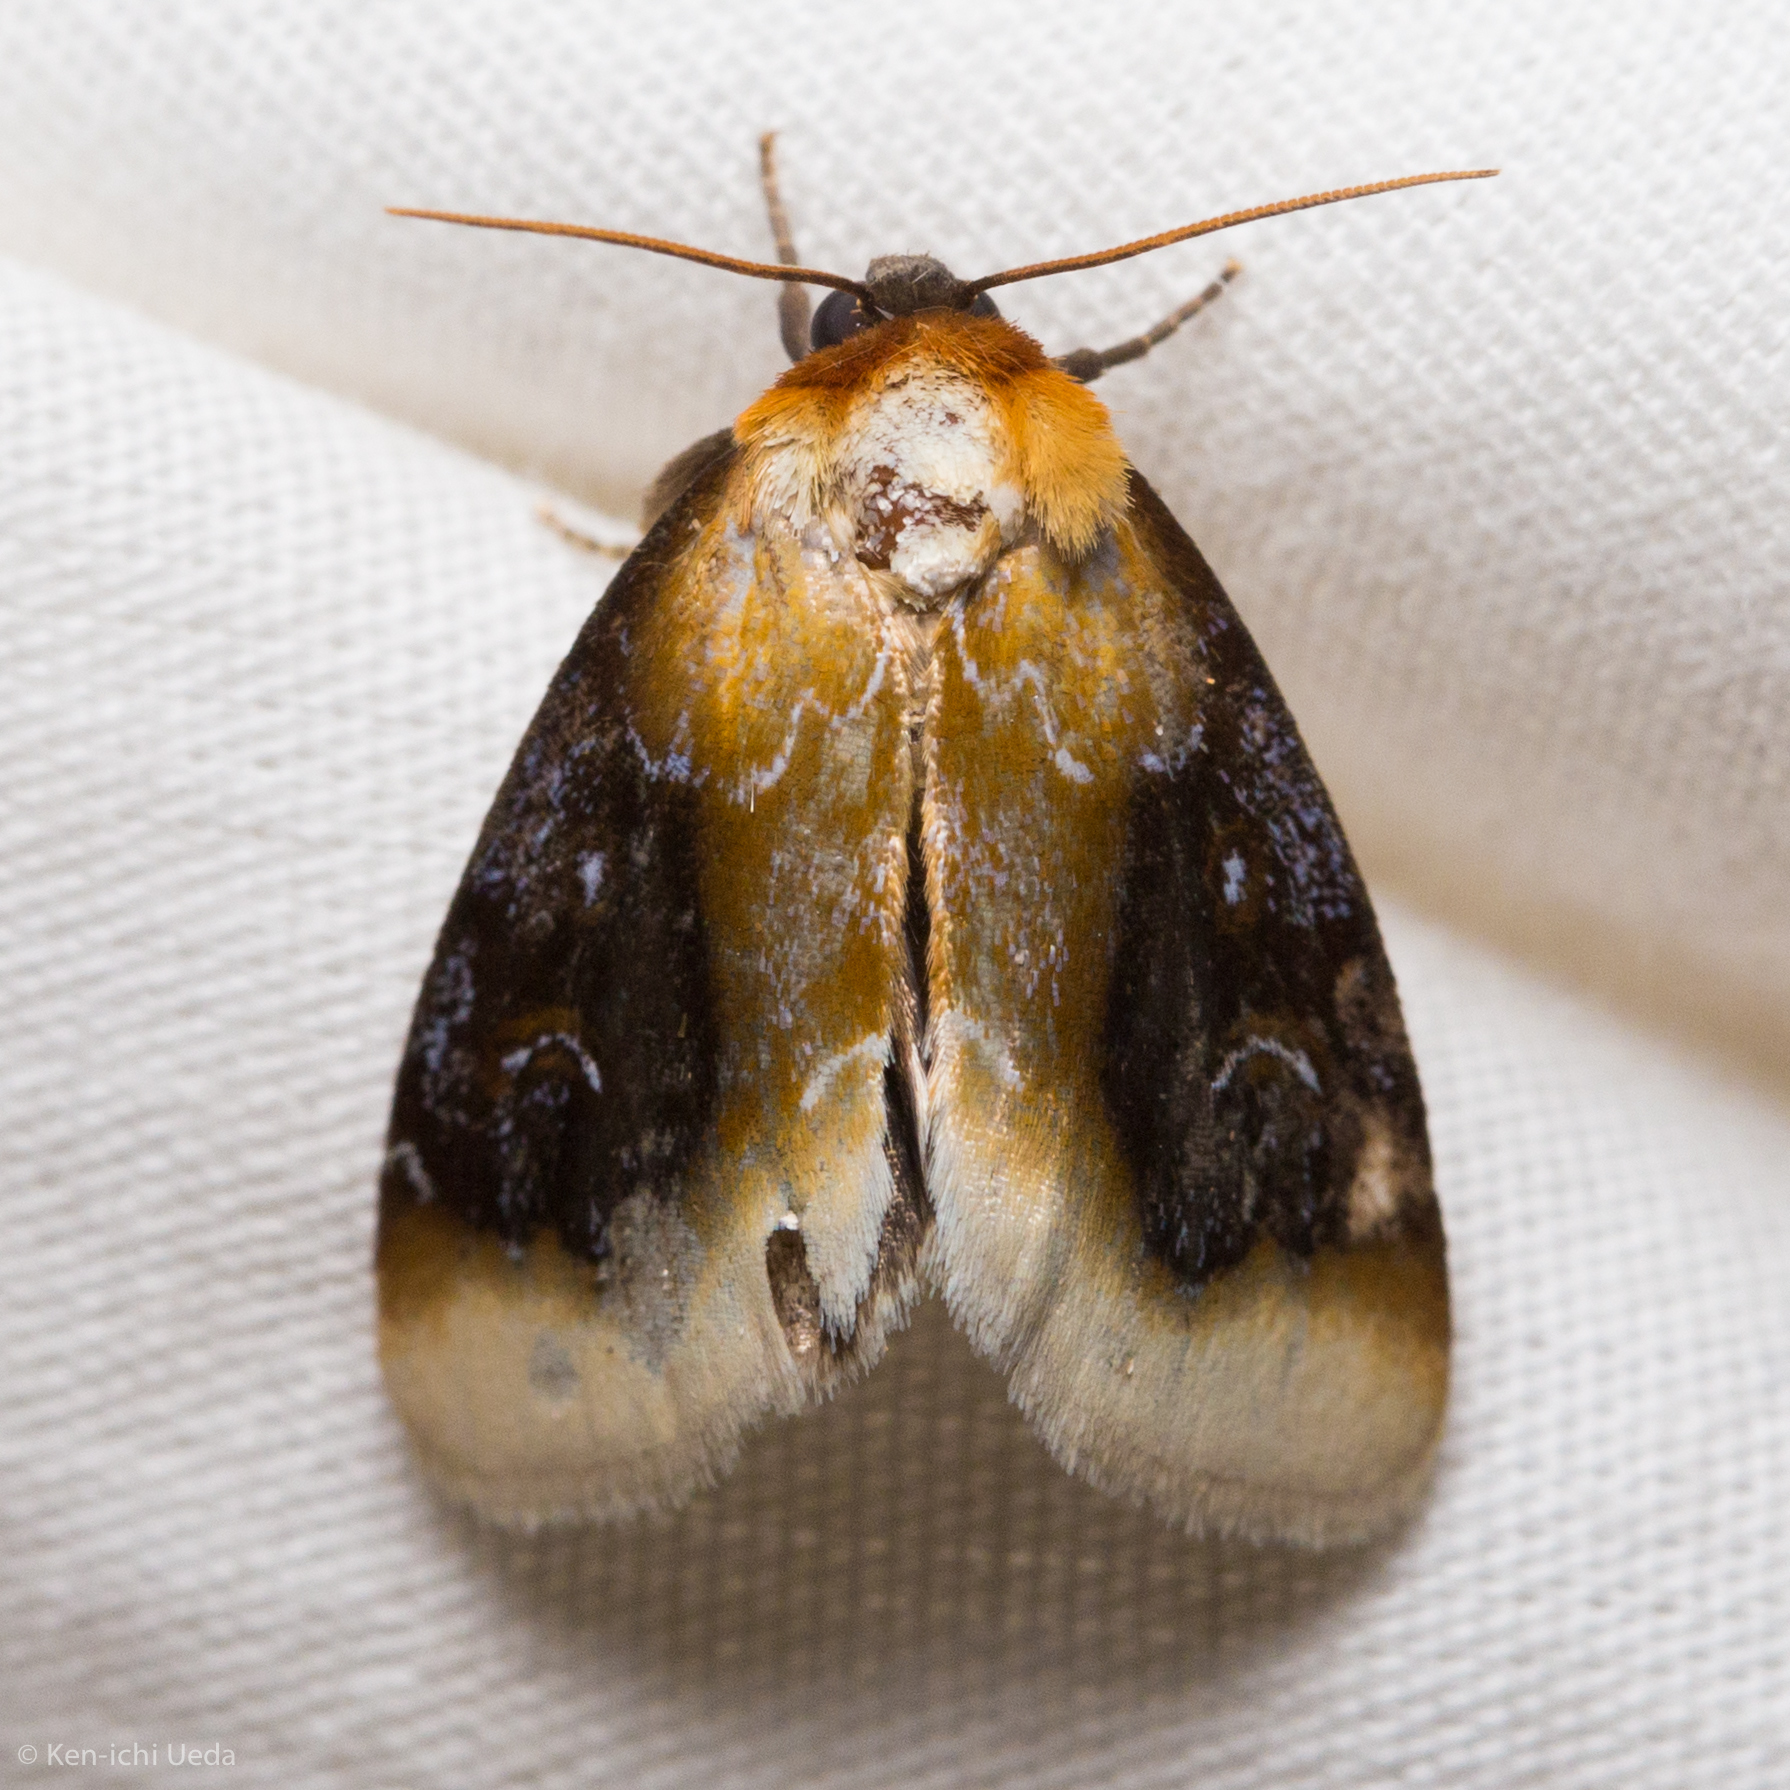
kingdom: Animalia
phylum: Arthropoda
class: Insecta
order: Lepidoptera
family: Noctuidae
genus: Chrysoecia
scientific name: Chrysoecia scira
